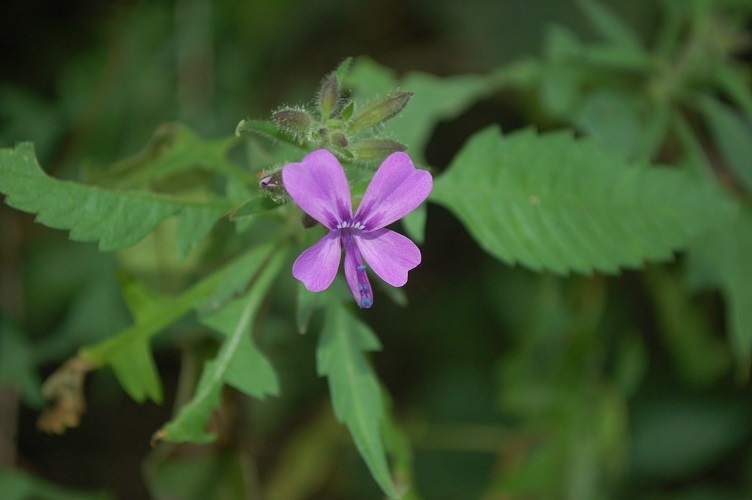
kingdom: Plantae
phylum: Tracheophyta
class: Magnoliopsida
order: Ericales
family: Polemoniaceae
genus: Bonplandia
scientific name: Bonplandia geminiflora
